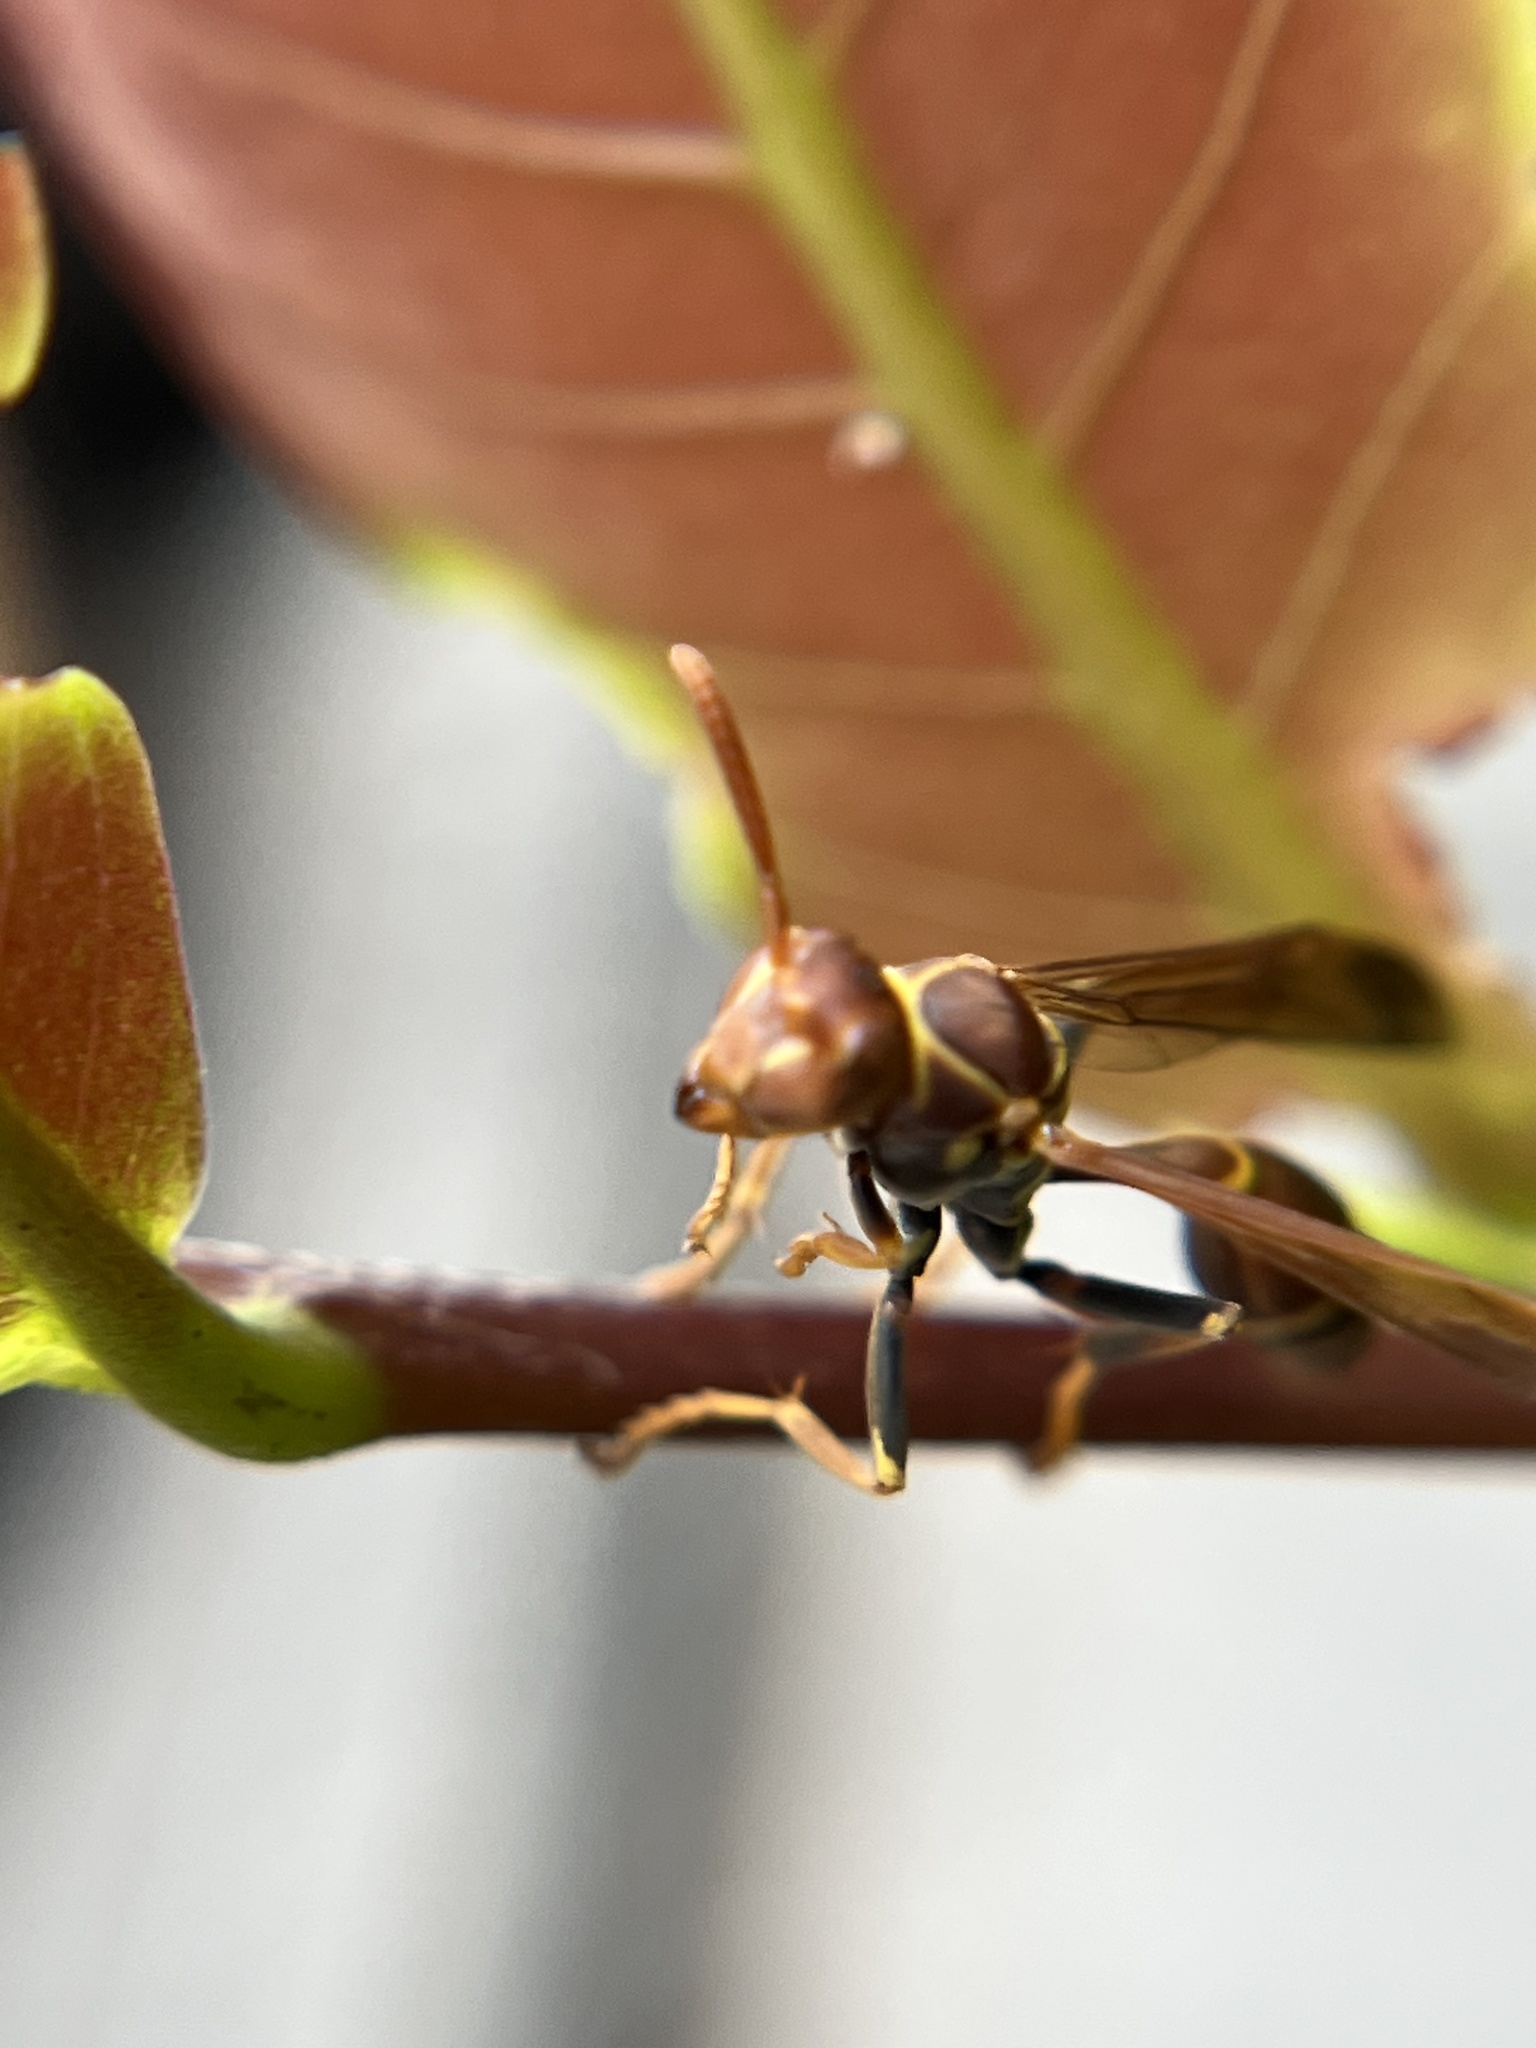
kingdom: Animalia
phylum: Arthropoda
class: Insecta
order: Hymenoptera
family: Vespidae
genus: Mischocyttarus
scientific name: Mischocyttarus mexicanus
